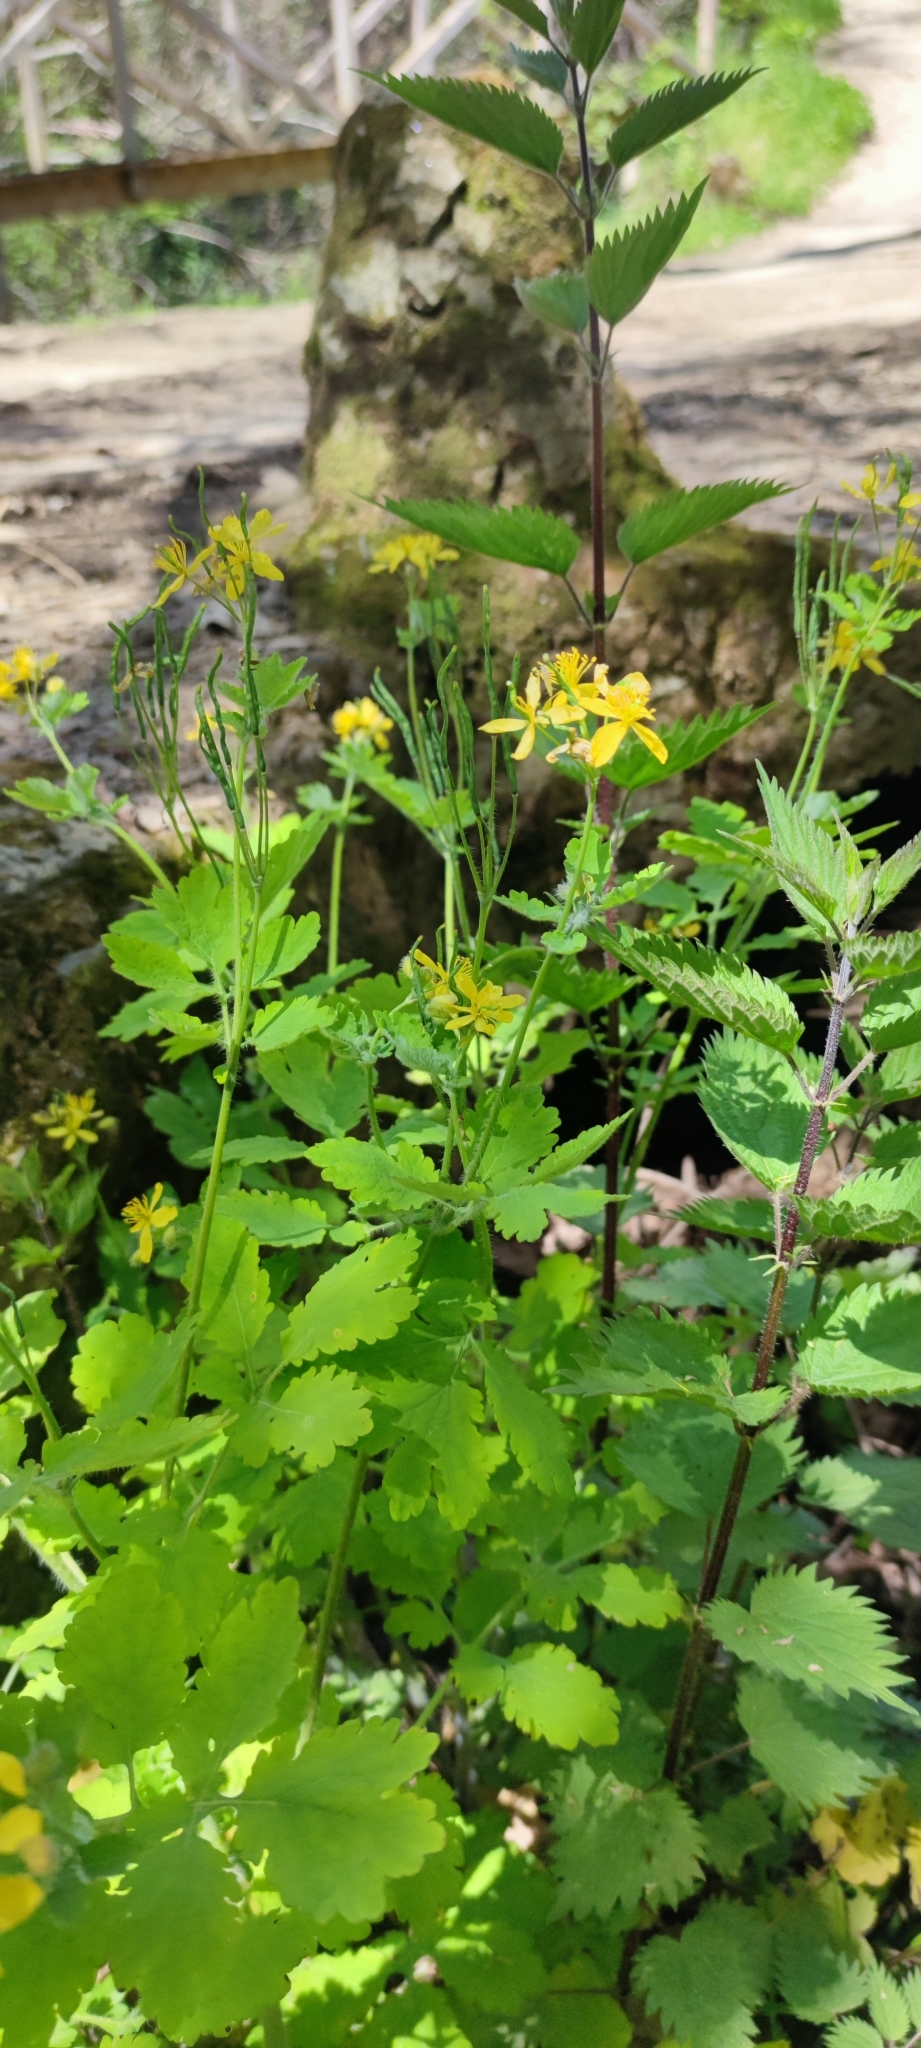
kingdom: Plantae
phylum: Tracheophyta
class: Magnoliopsida
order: Ranunculales
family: Papaveraceae
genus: Chelidonium
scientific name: Chelidonium majus
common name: Greater celandine
